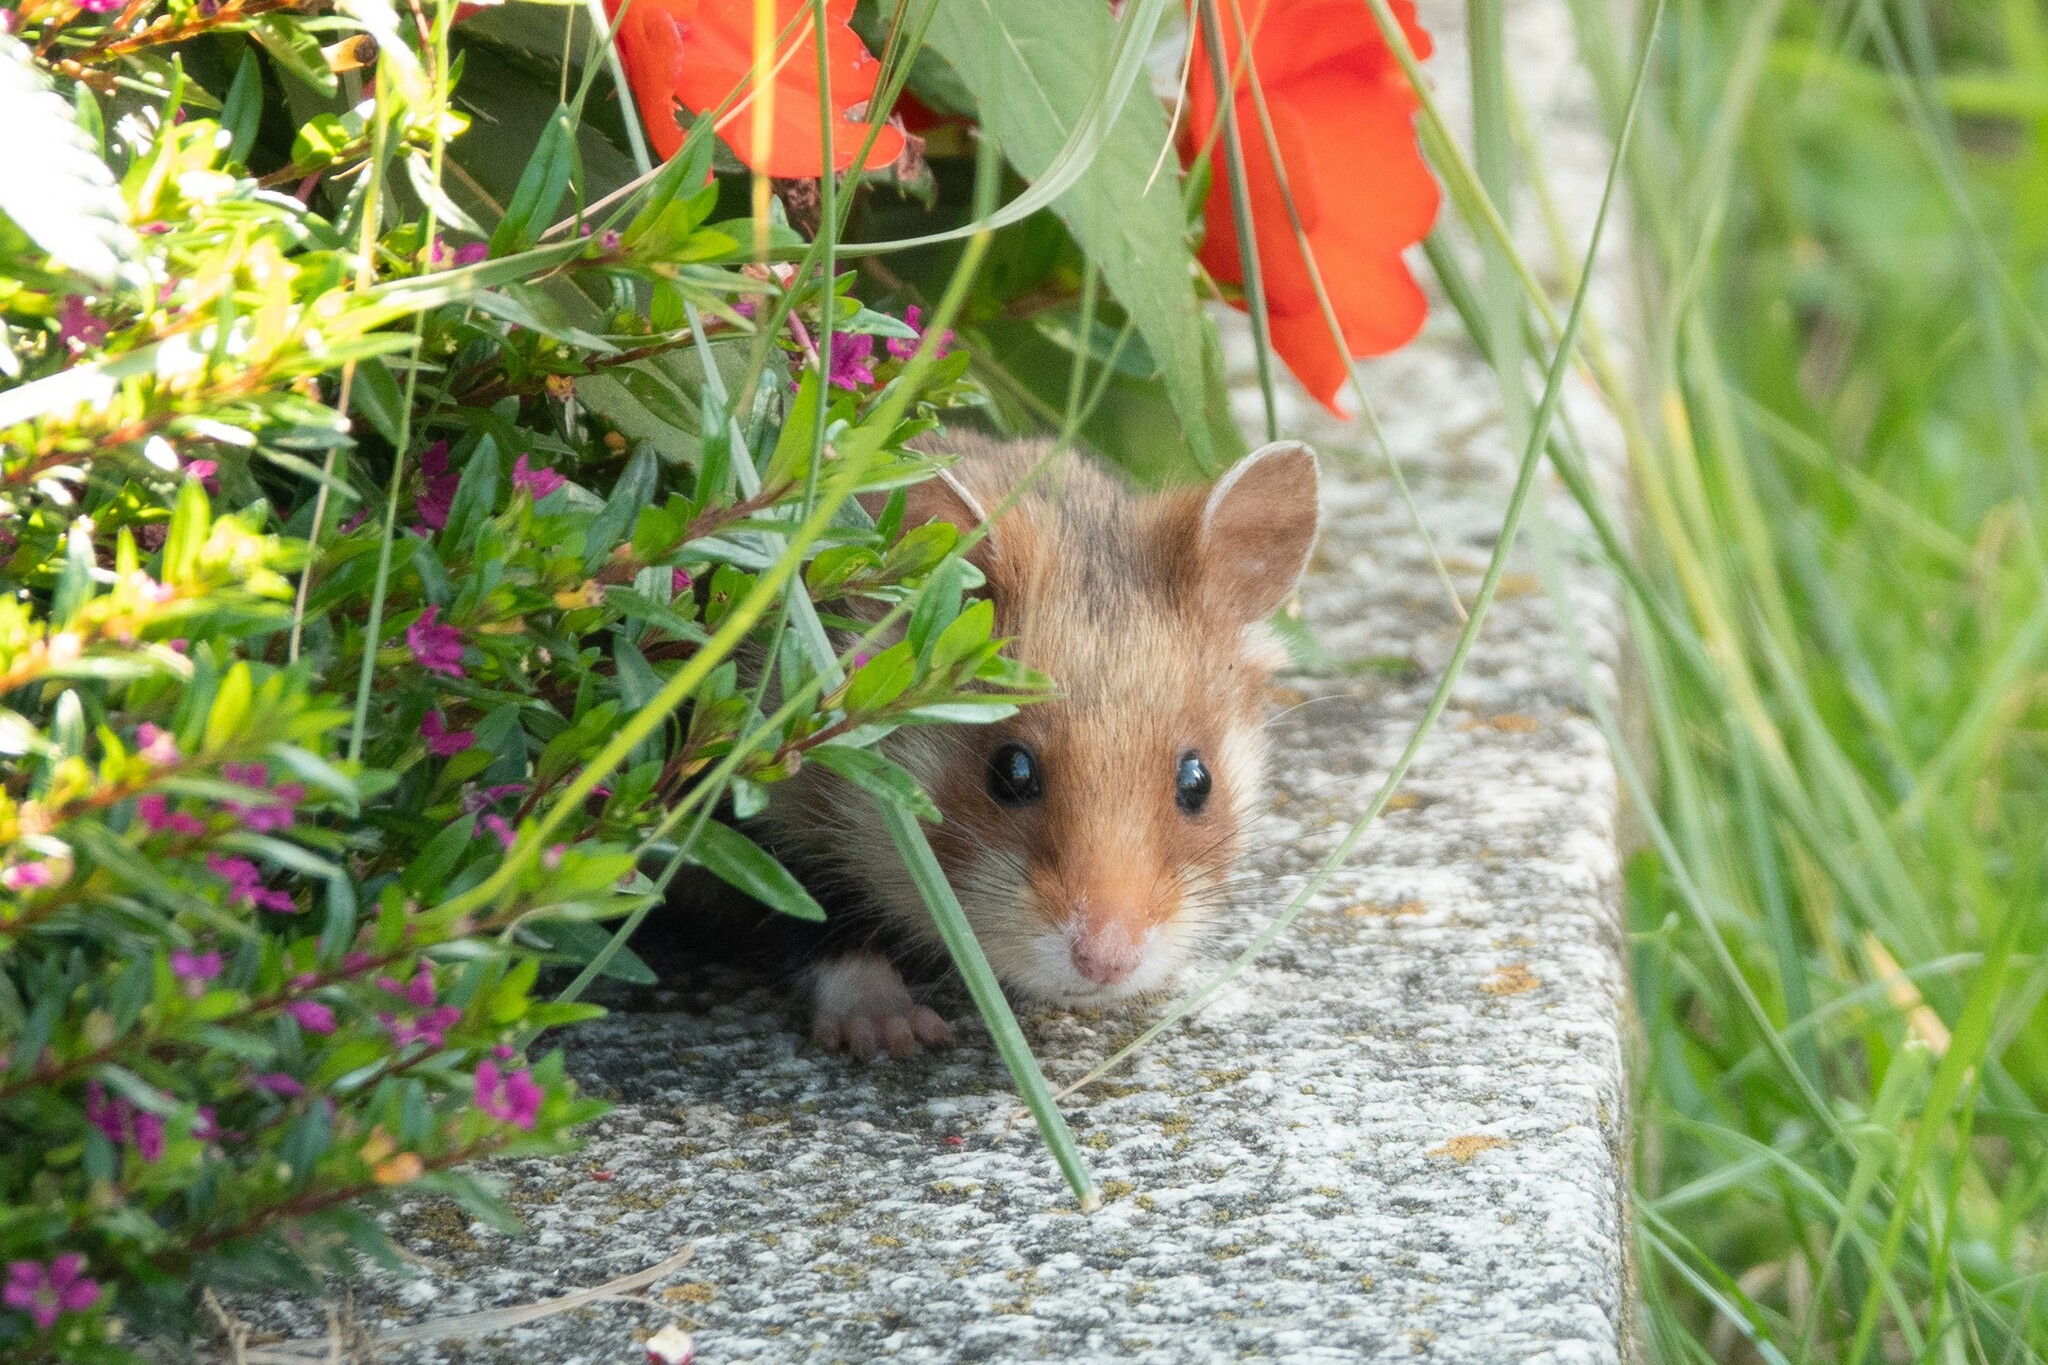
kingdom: Animalia
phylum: Chordata
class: Mammalia
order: Rodentia
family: Cricetidae
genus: Cricetus
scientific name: Cricetus cricetus
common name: Common hamster
